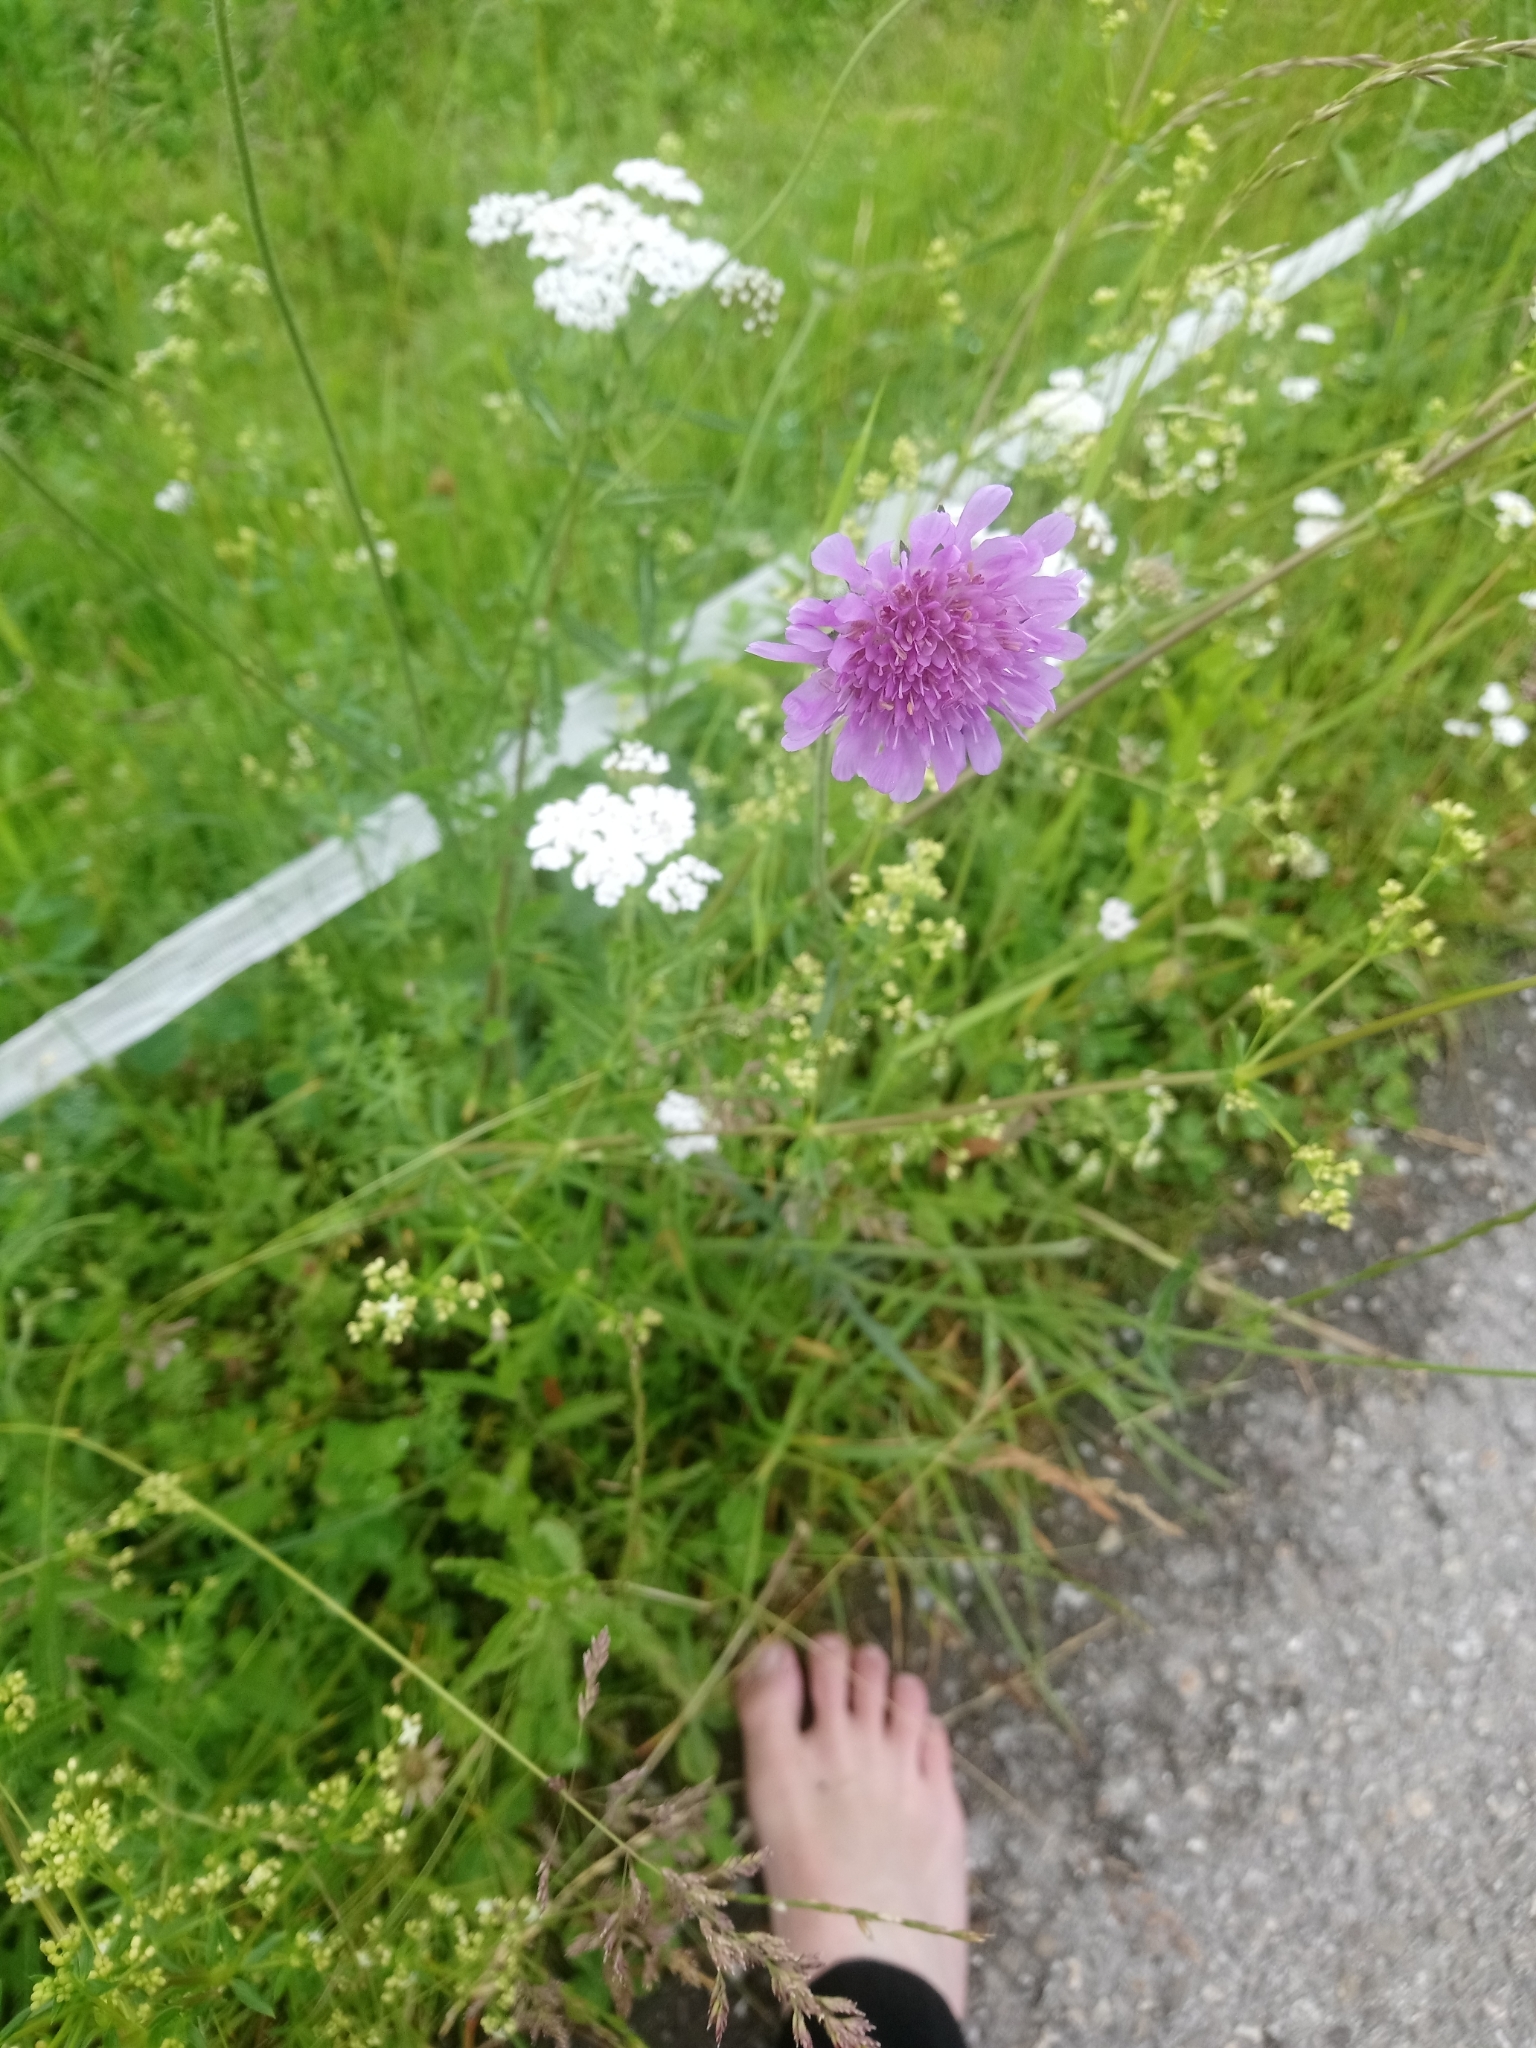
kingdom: Plantae
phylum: Tracheophyta
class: Magnoliopsida
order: Dipsacales
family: Caprifoliaceae
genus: Knautia
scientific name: Knautia arvensis
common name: Field scabiosa
